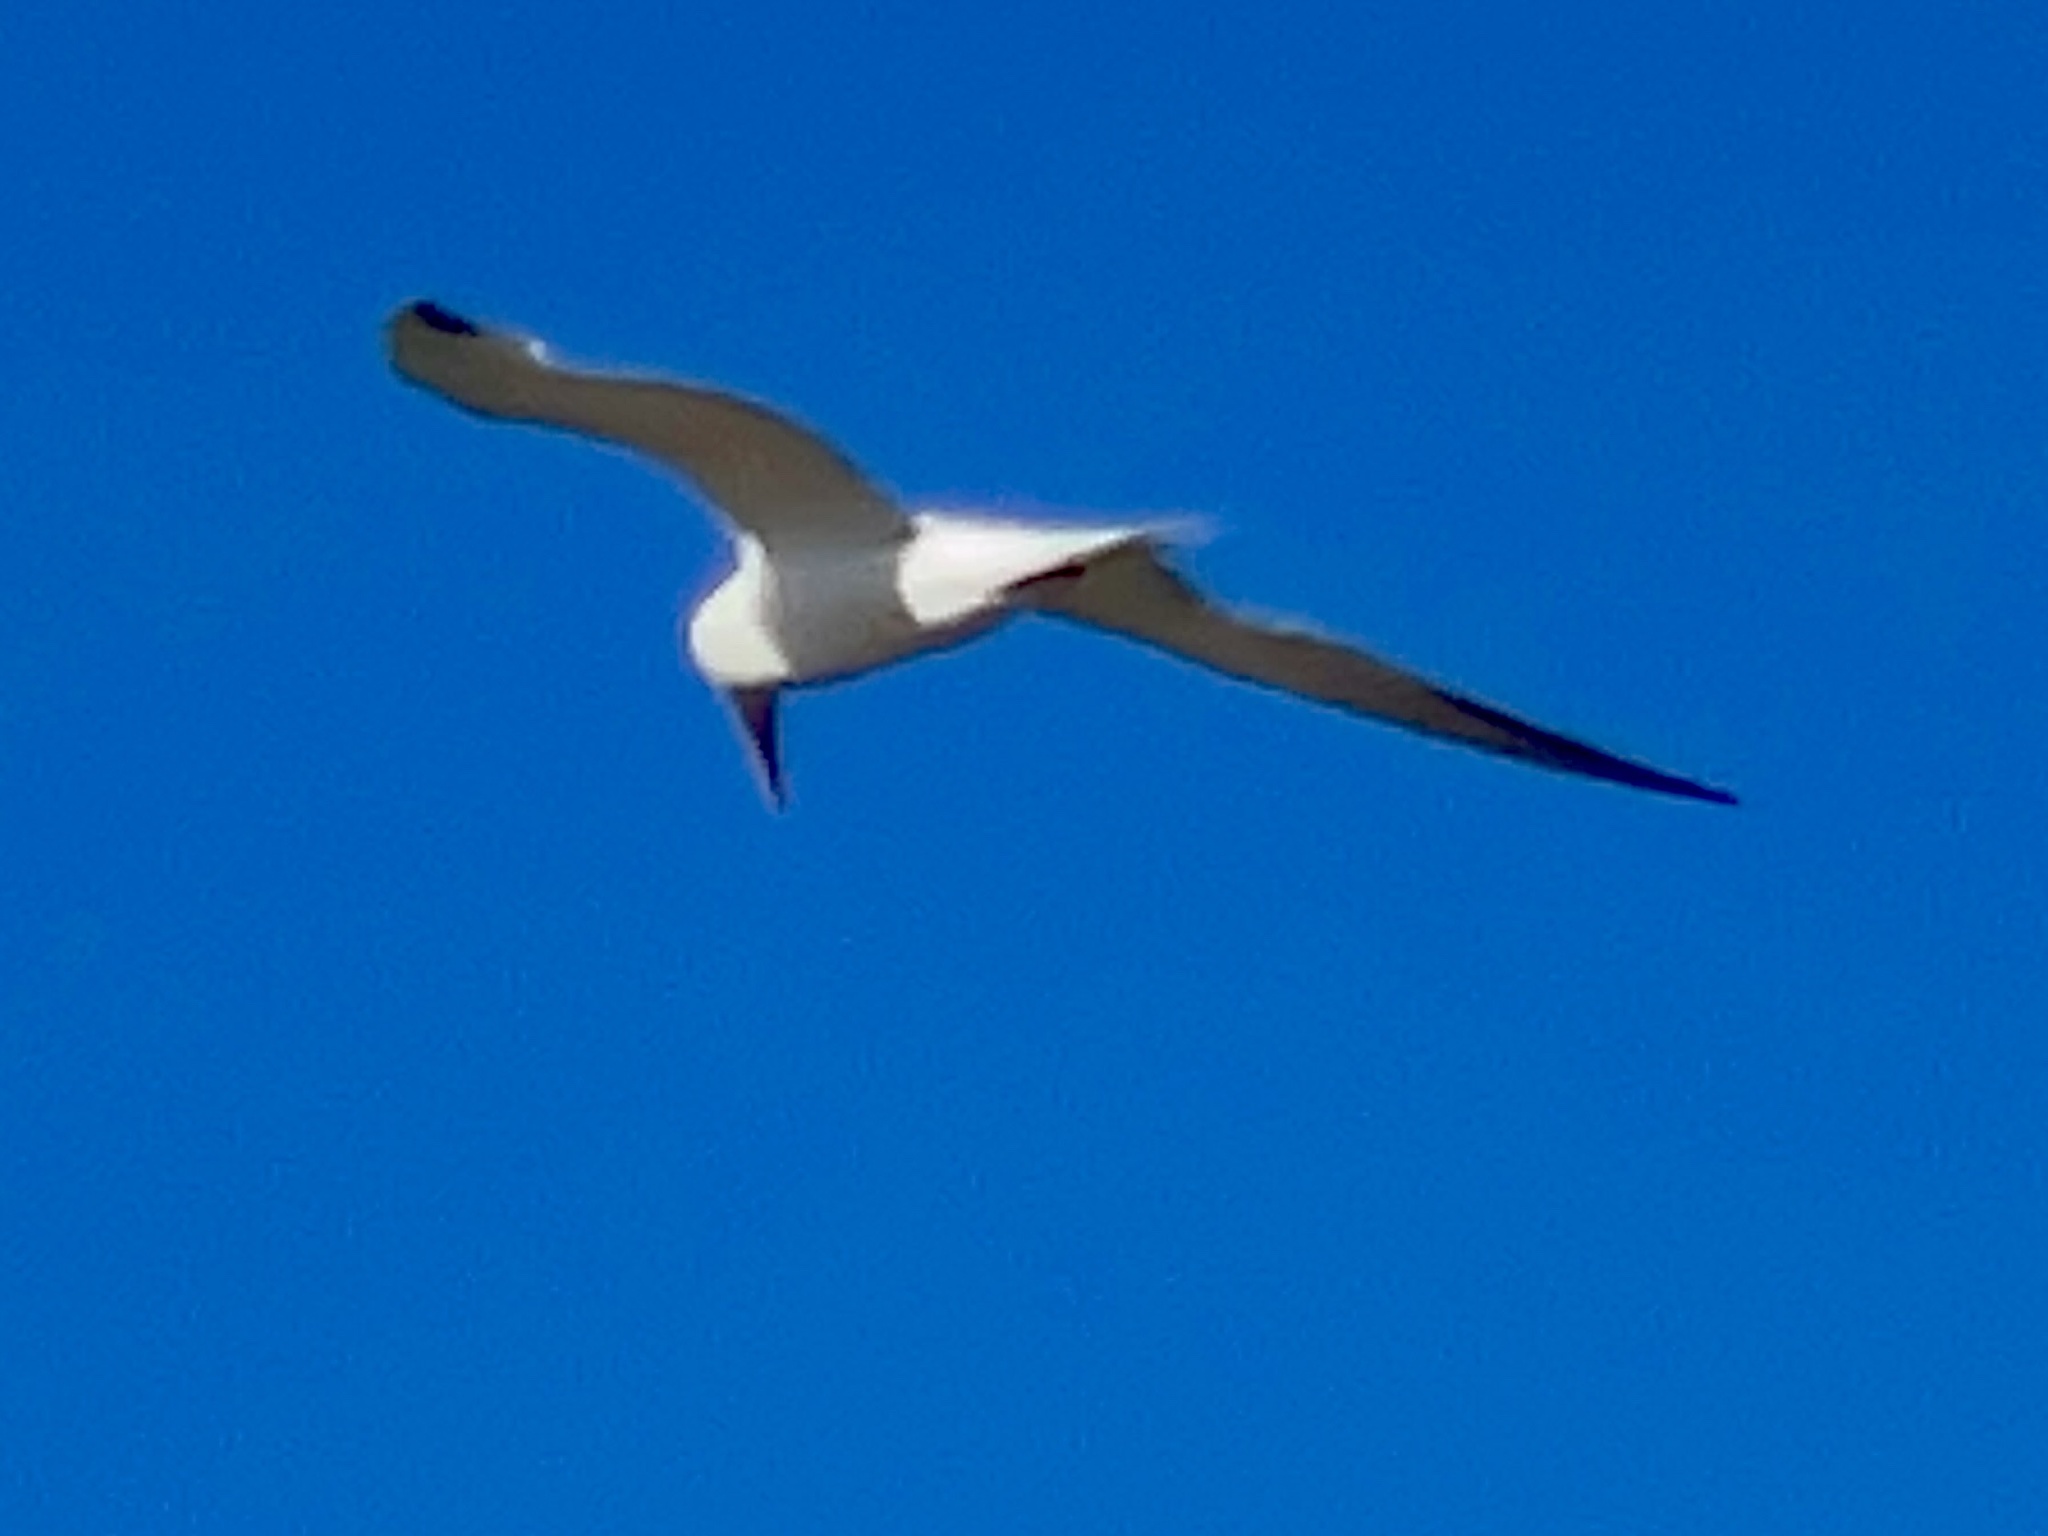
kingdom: Animalia
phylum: Chordata
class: Aves
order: Charadriiformes
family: Laridae
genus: Thalasseus
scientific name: Thalasseus maximus
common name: Royal tern
